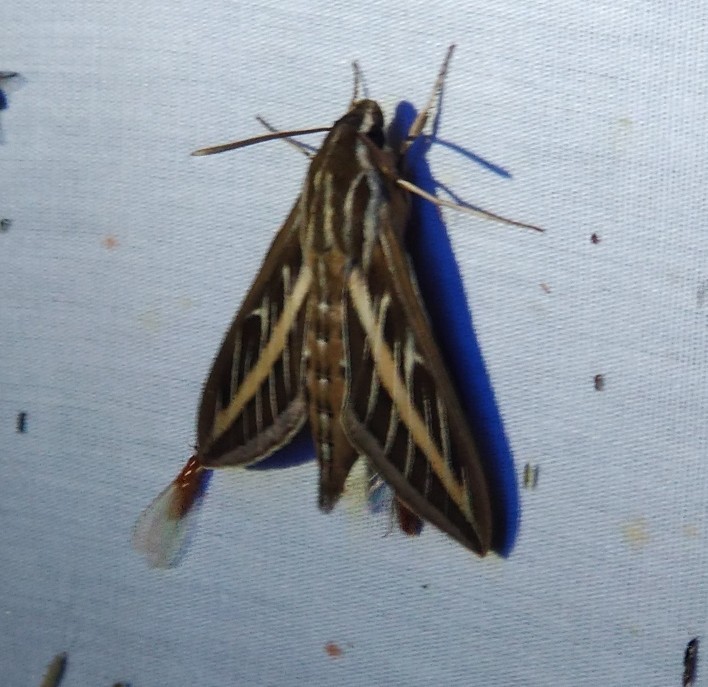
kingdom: Animalia
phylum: Arthropoda
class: Insecta
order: Lepidoptera
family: Sphingidae
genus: Hyles
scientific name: Hyles lineata
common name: White-lined sphinx
